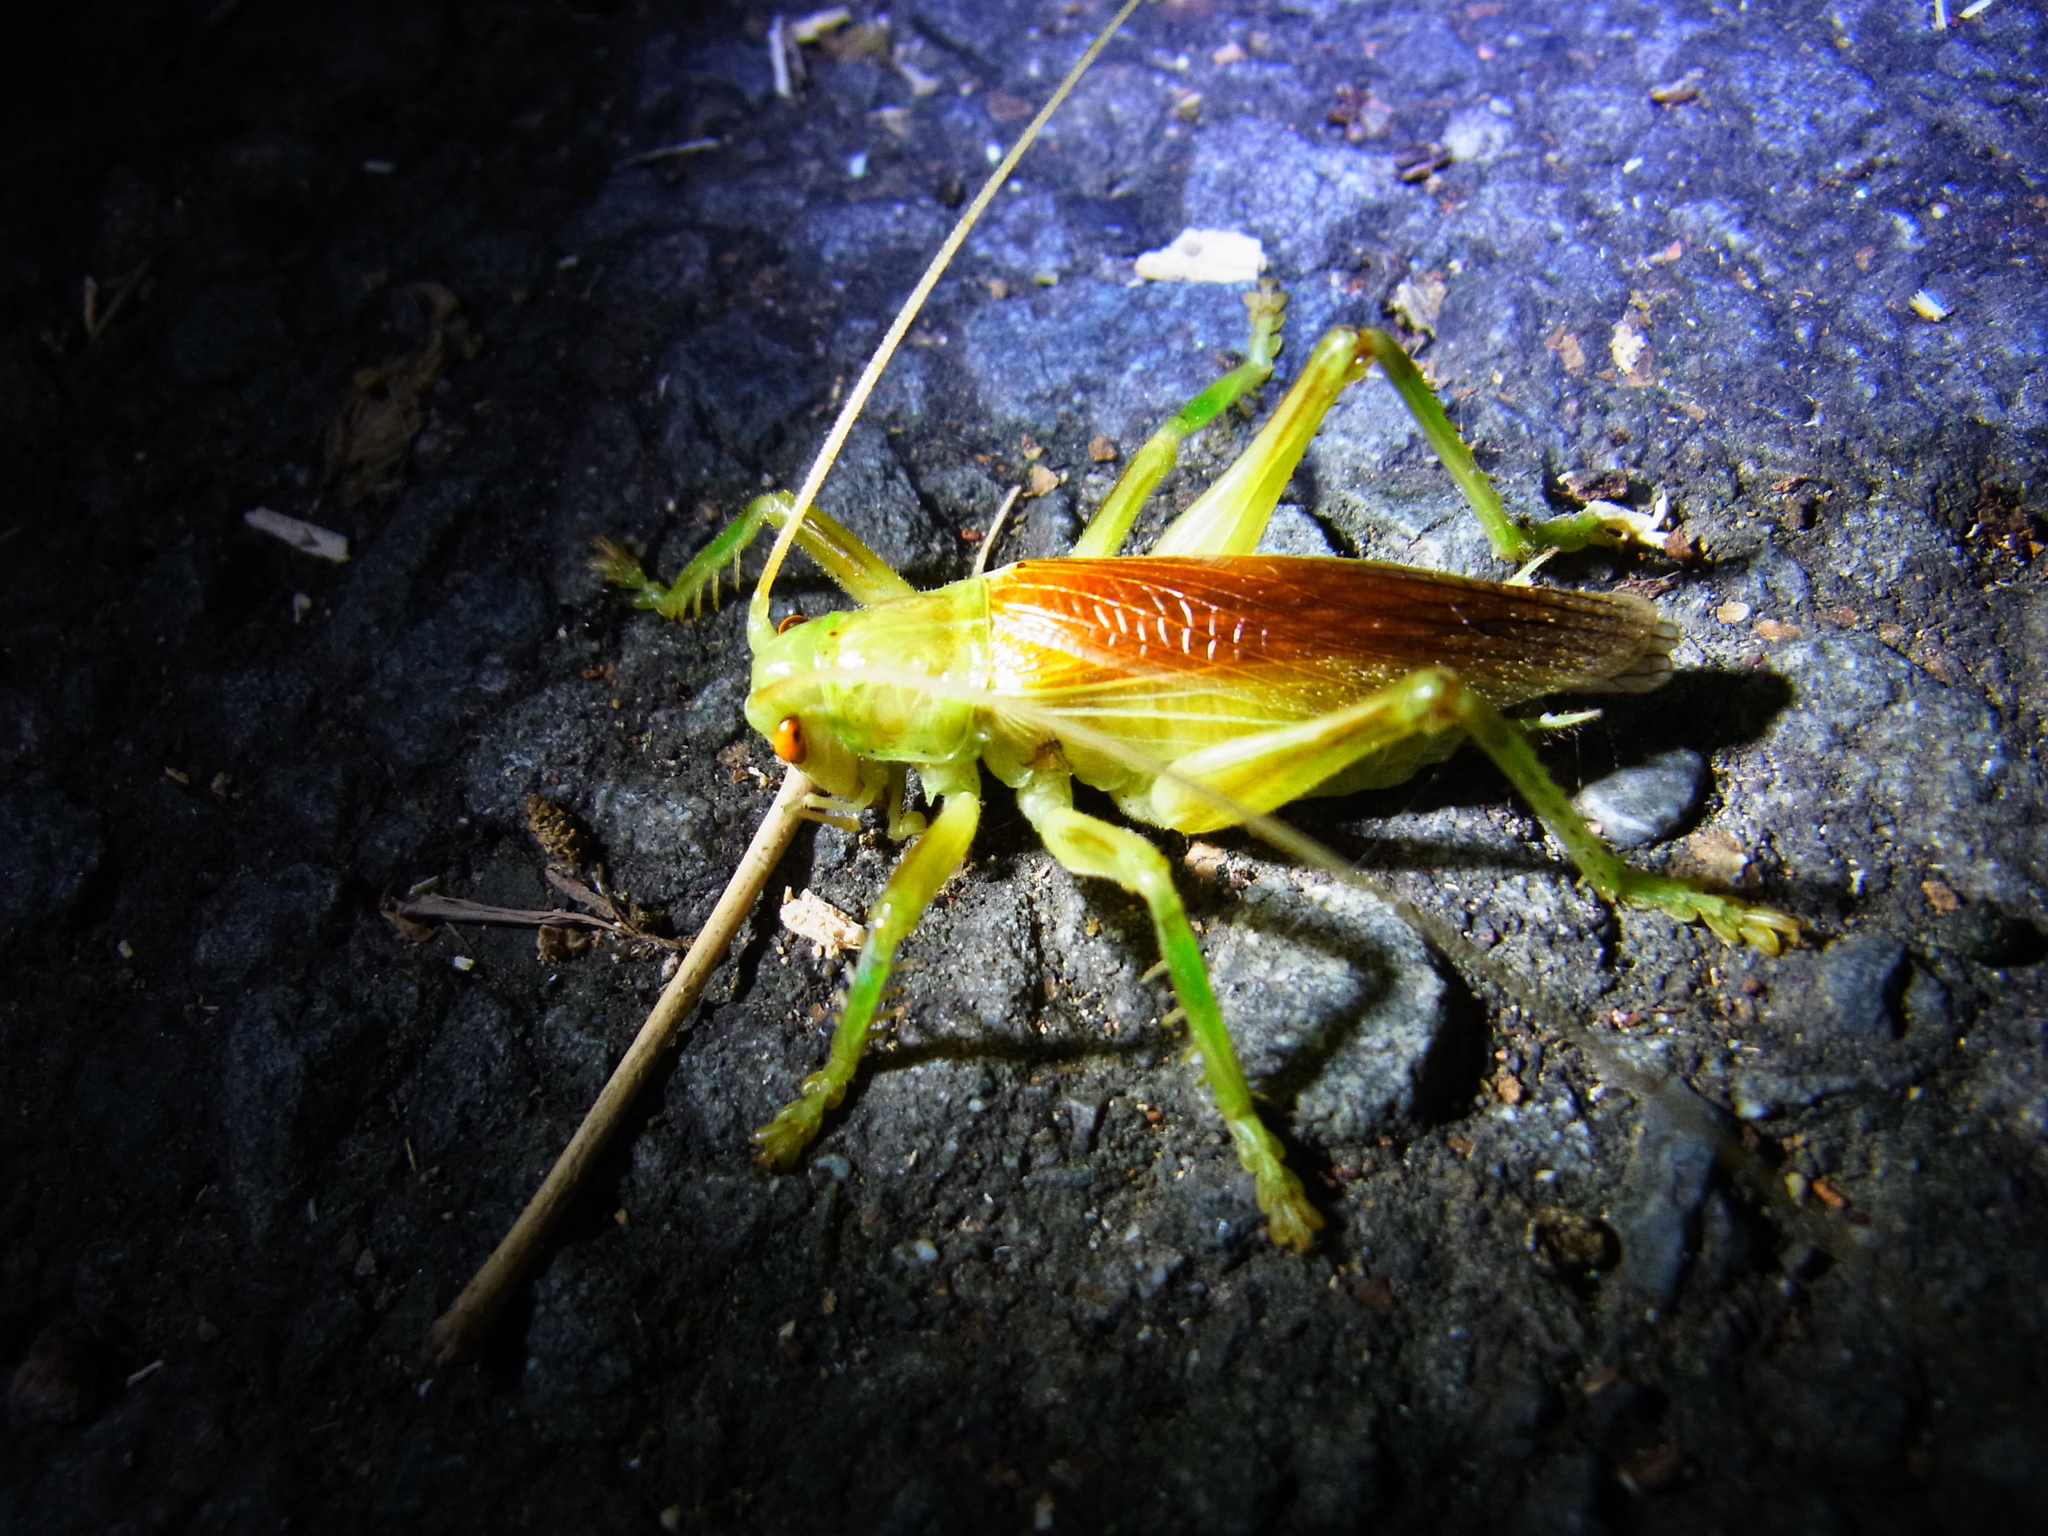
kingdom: Animalia
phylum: Arthropoda
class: Insecta
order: Orthoptera
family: Gryllacrididae
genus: Eugryllacris
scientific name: Eugryllacris japonica
